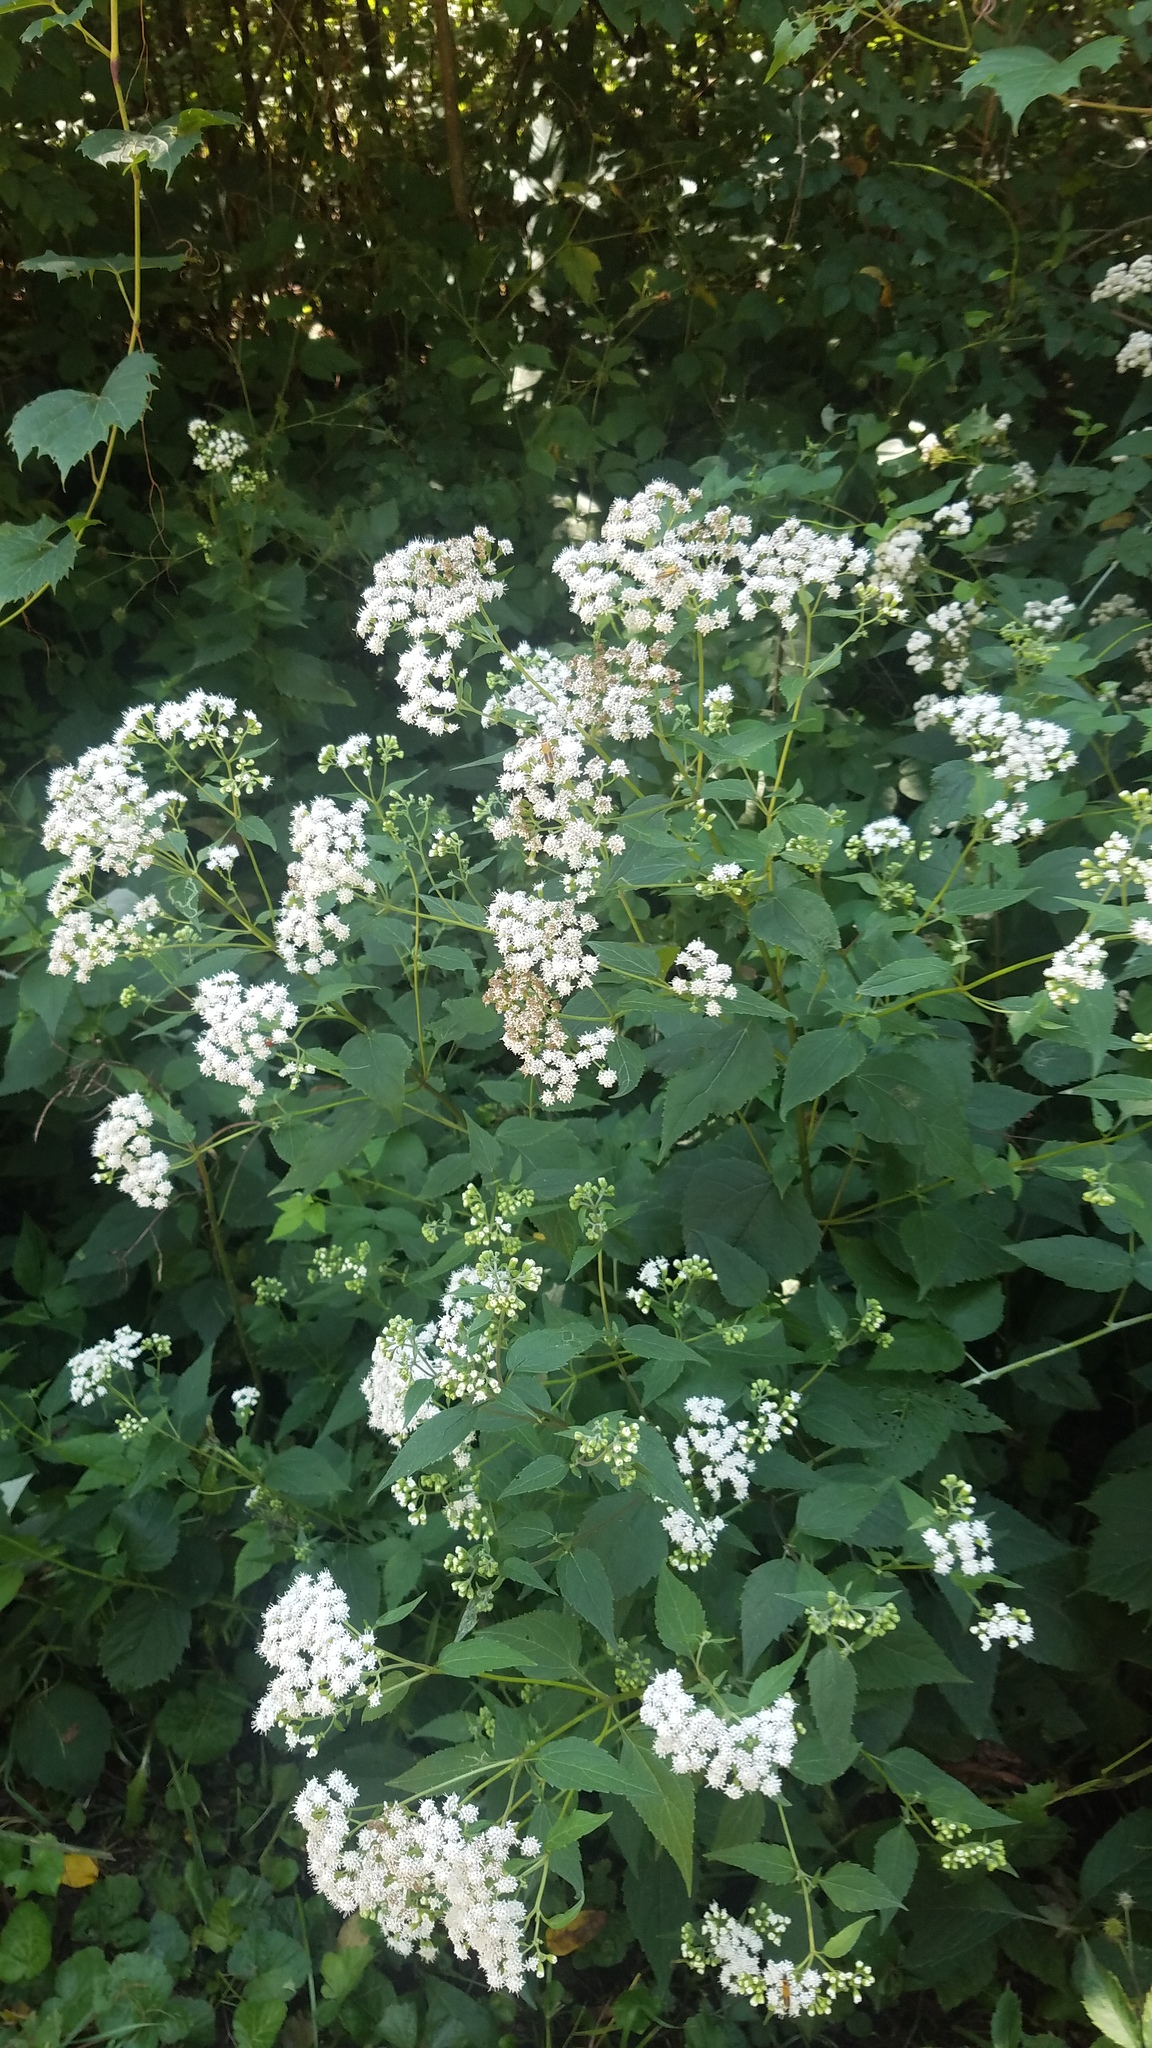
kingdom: Plantae
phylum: Tracheophyta
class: Magnoliopsida
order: Asterales
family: Asteraceae
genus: Ageratina
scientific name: Ageratina altissima
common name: White snakeroot
